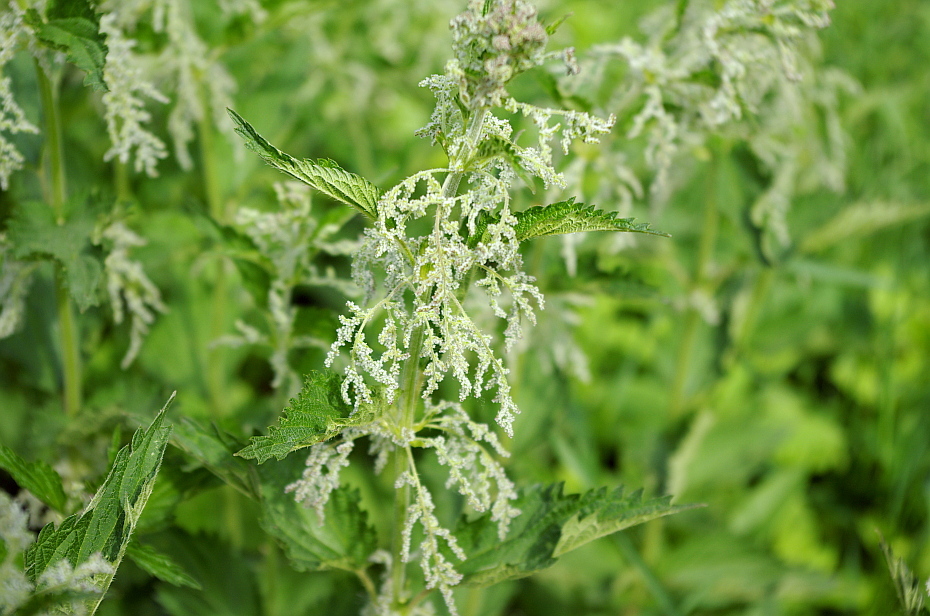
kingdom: Plantae
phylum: Tracheophyta
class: Magnoliopsida
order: Rosales
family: Urticaceae
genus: Urtica
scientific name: Urtica dioica
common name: Common nettle
